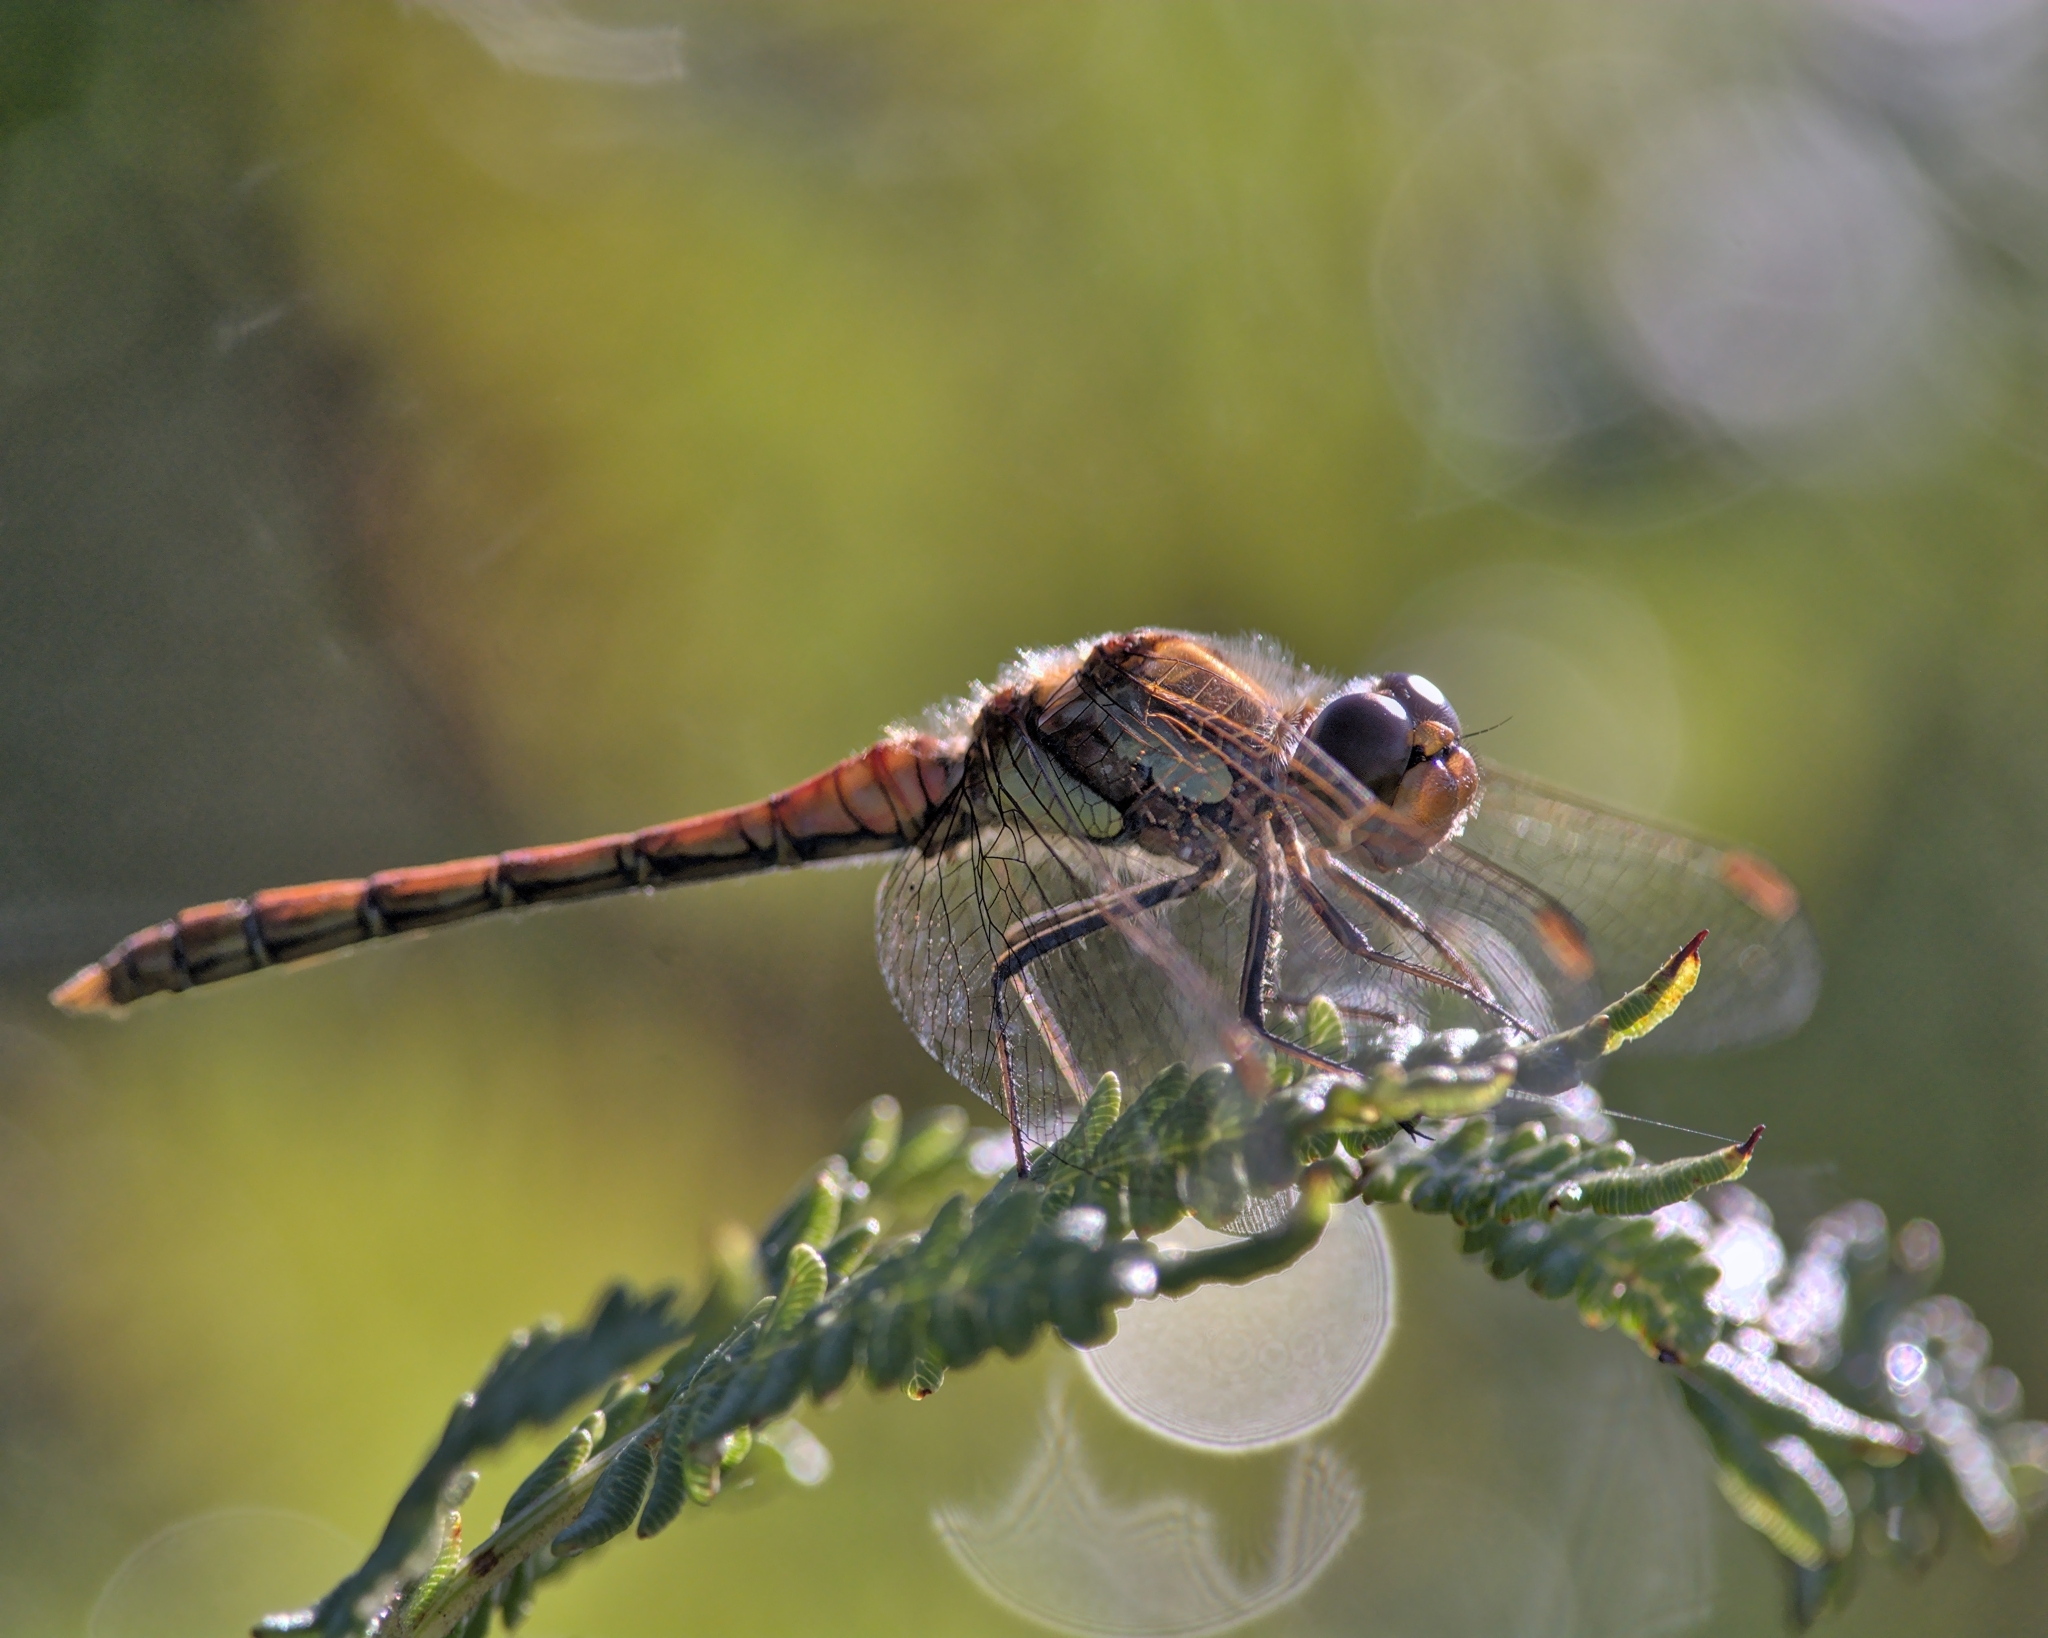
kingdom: Animalia
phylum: Arthropoda
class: Insecta
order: Odonata
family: Libellulidae
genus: Sympetrum
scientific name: Sympetrum striolatum
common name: Common darter
